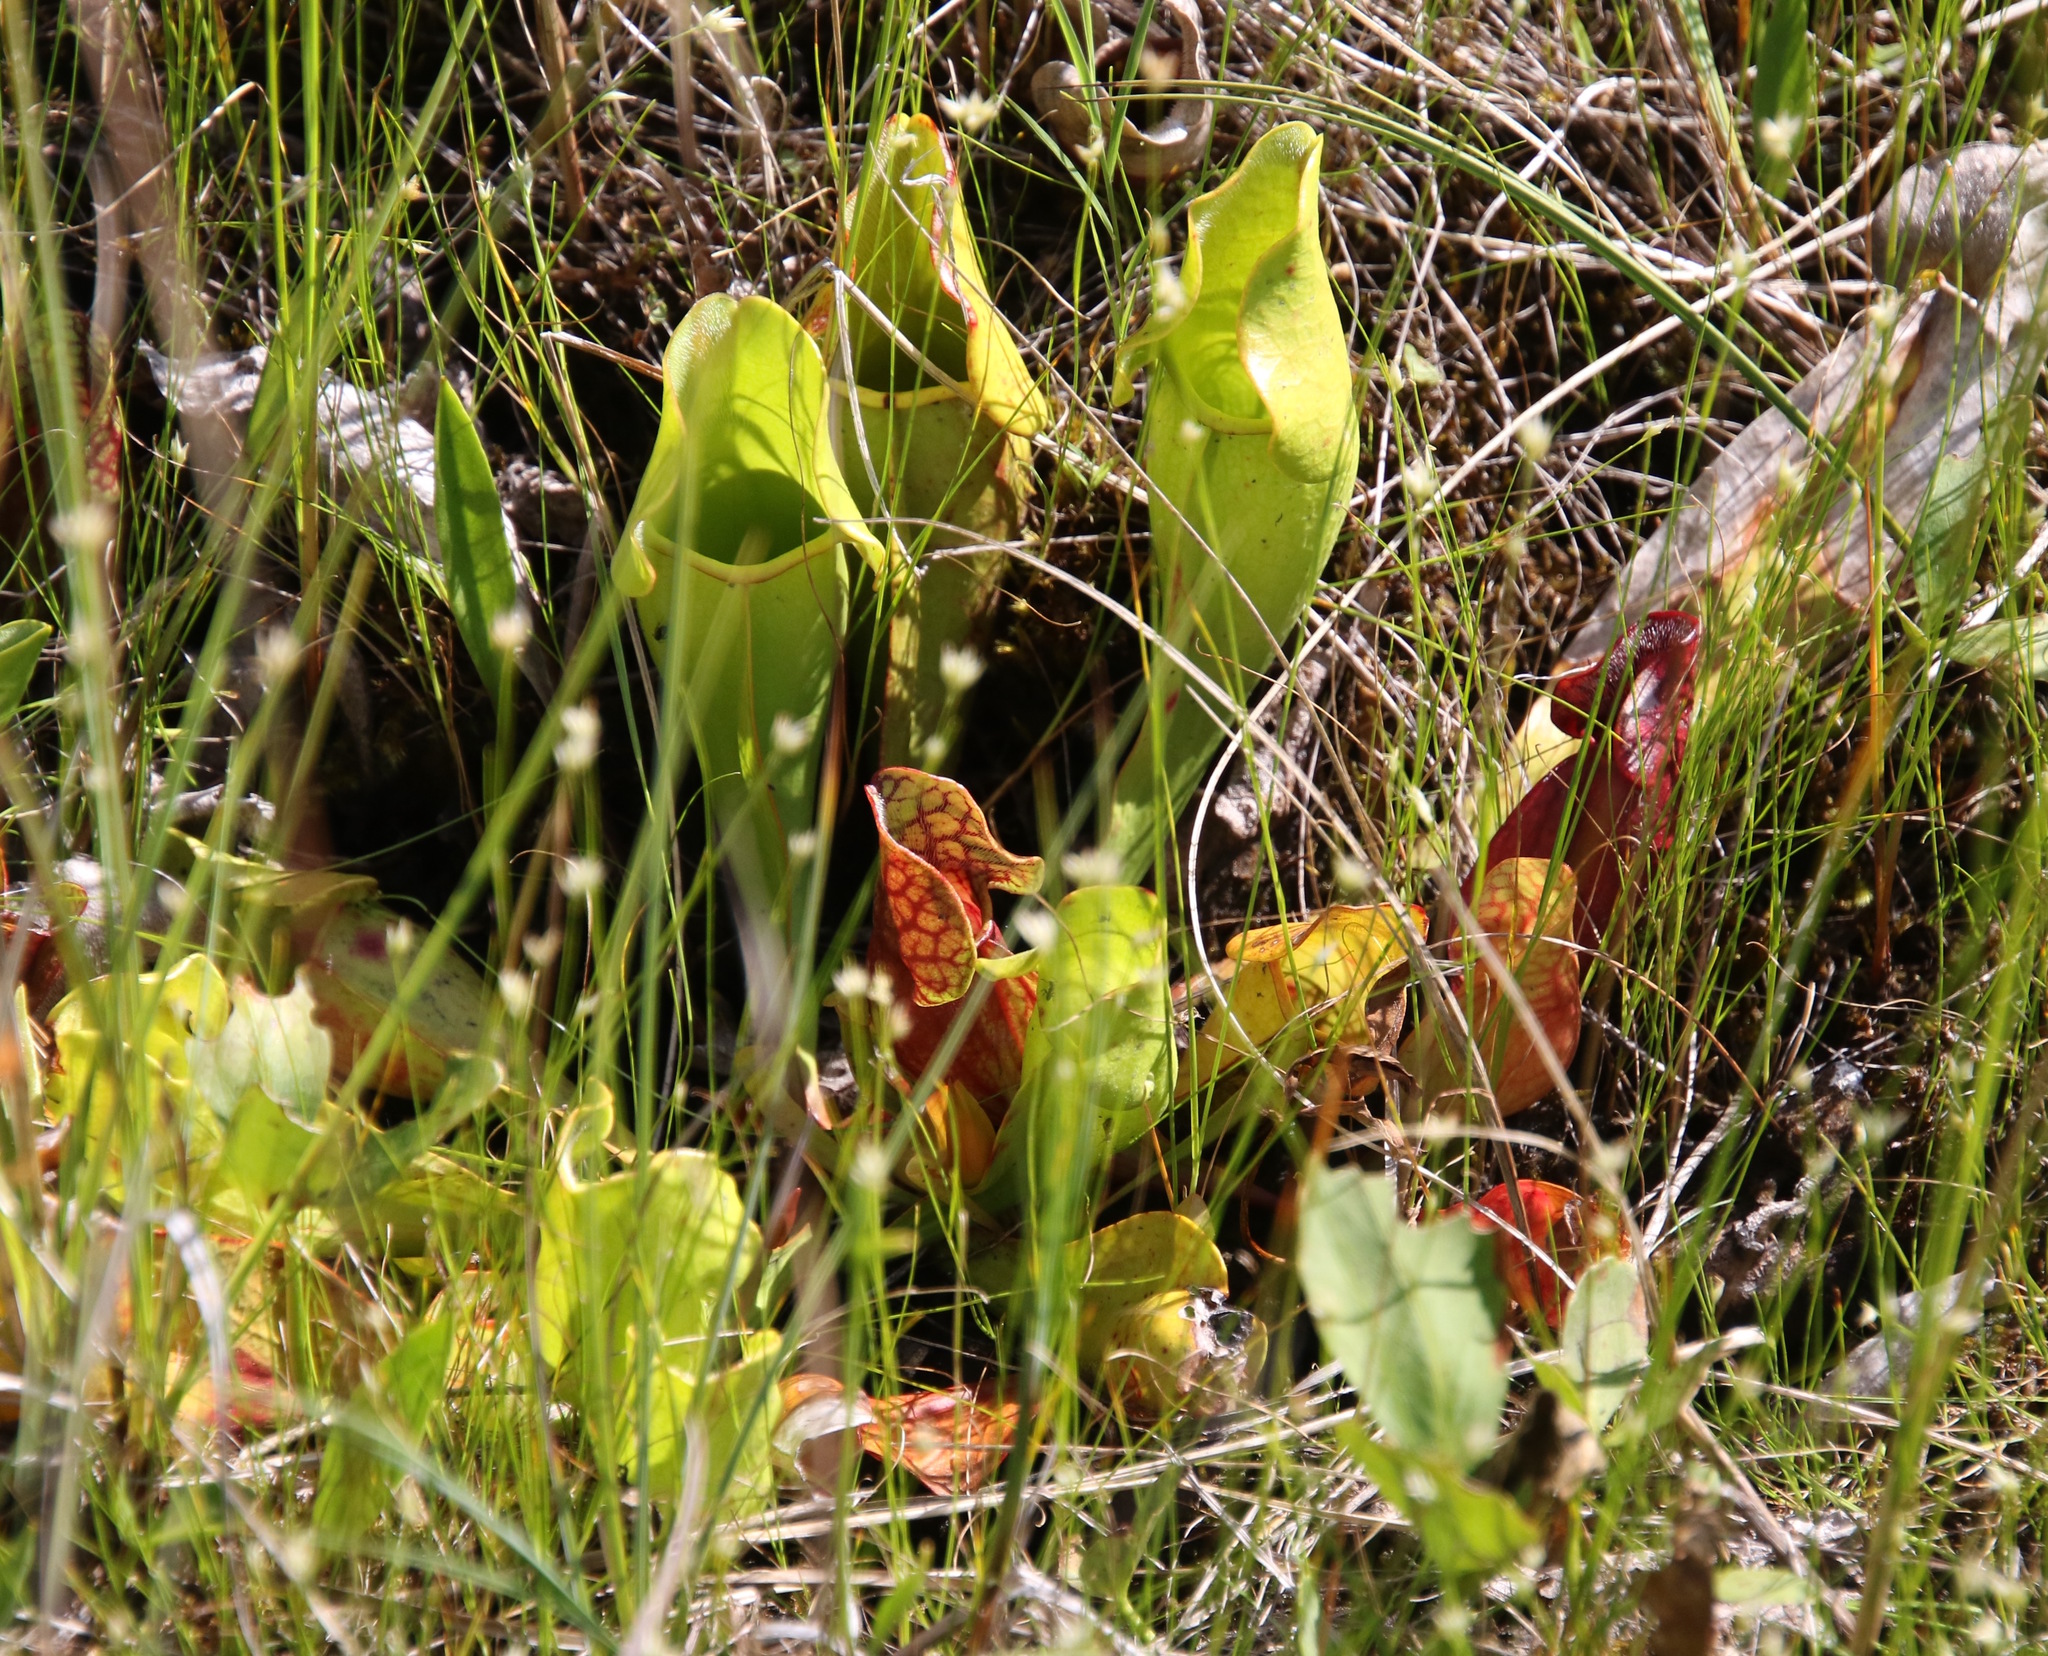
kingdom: Plantae
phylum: Tracheophyta
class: Magnoliopsida
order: Ericales
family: Sarraceniaceae
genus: Sarracenia
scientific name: Sarracenia purpurea
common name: Pitcherplant
